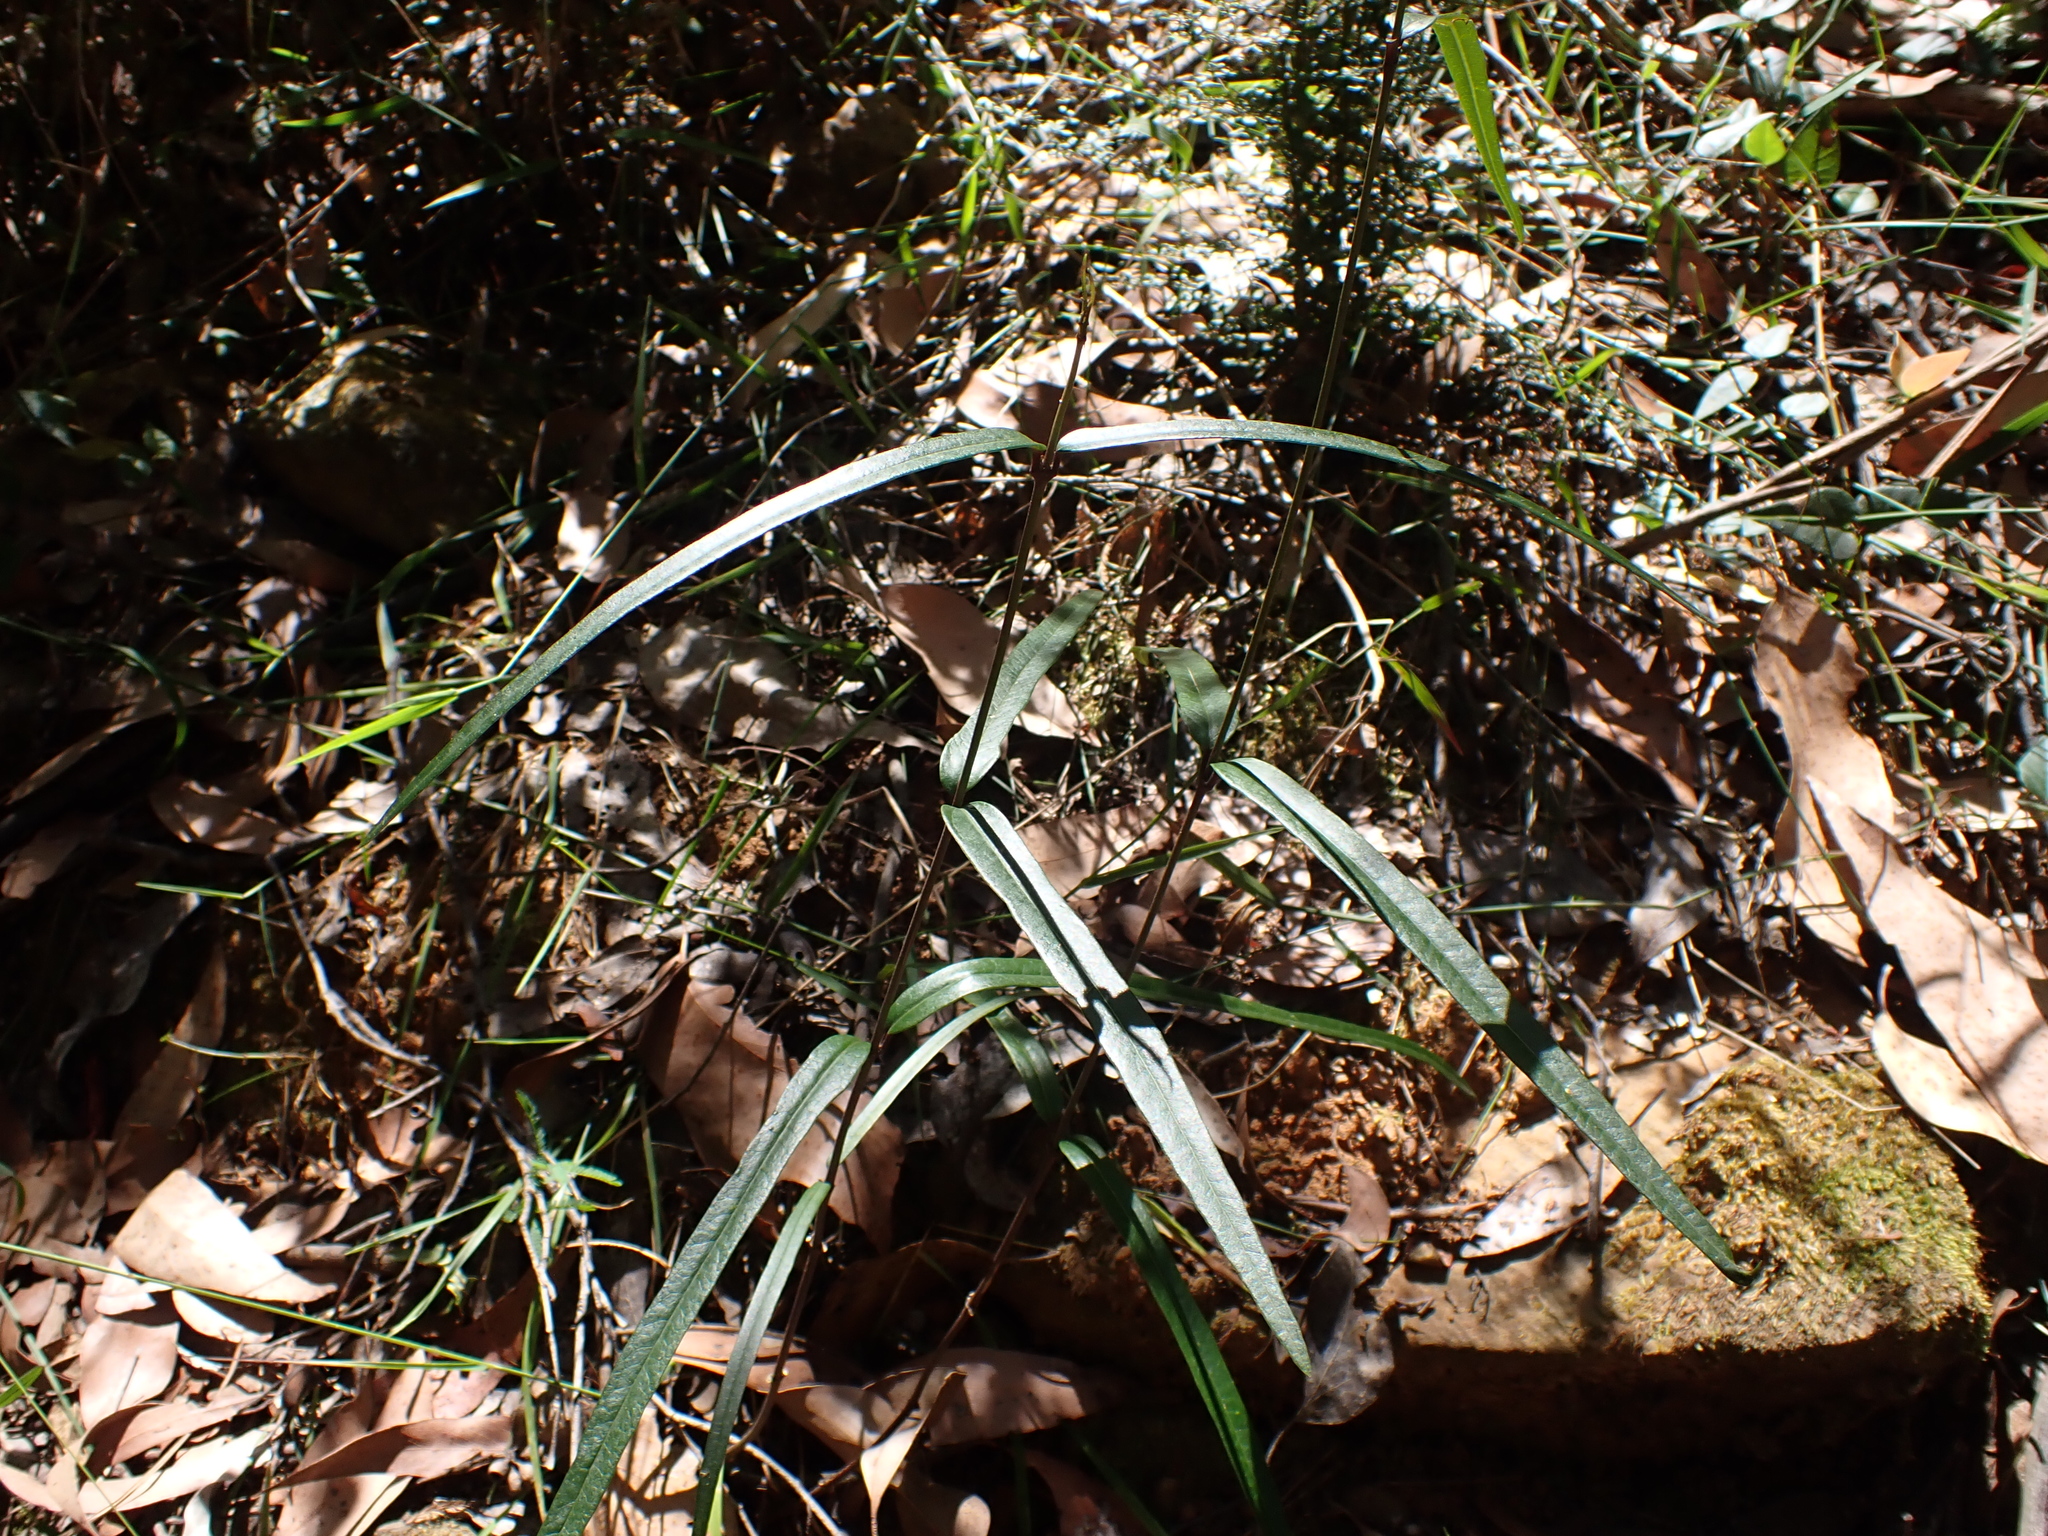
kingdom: Plantae
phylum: Tracheophyta
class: Magnoliopsida
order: Gentianales
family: Apocynaceae
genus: Parsonsia
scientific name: Parsonsia brownii
